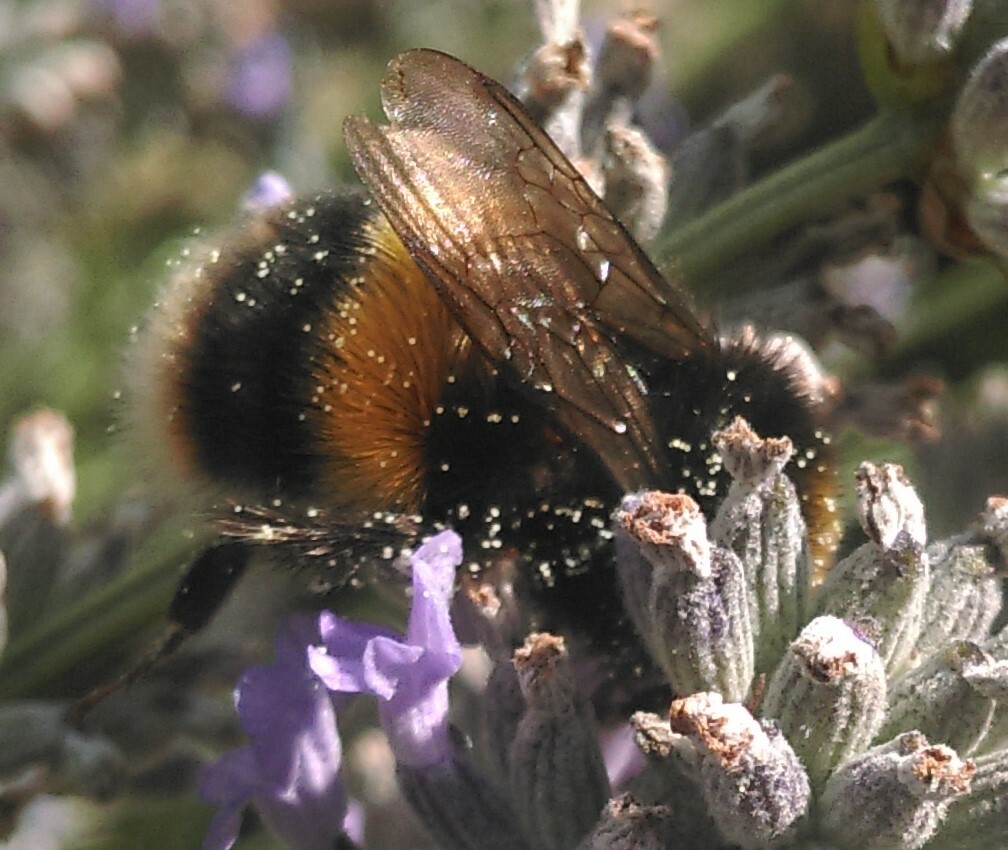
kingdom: Animalia
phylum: Arthropoda
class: Insecta
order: Hymenoptera
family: Apidae
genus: Bombus
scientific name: Bombus terrestris
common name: Buff-tailed bumblebee
